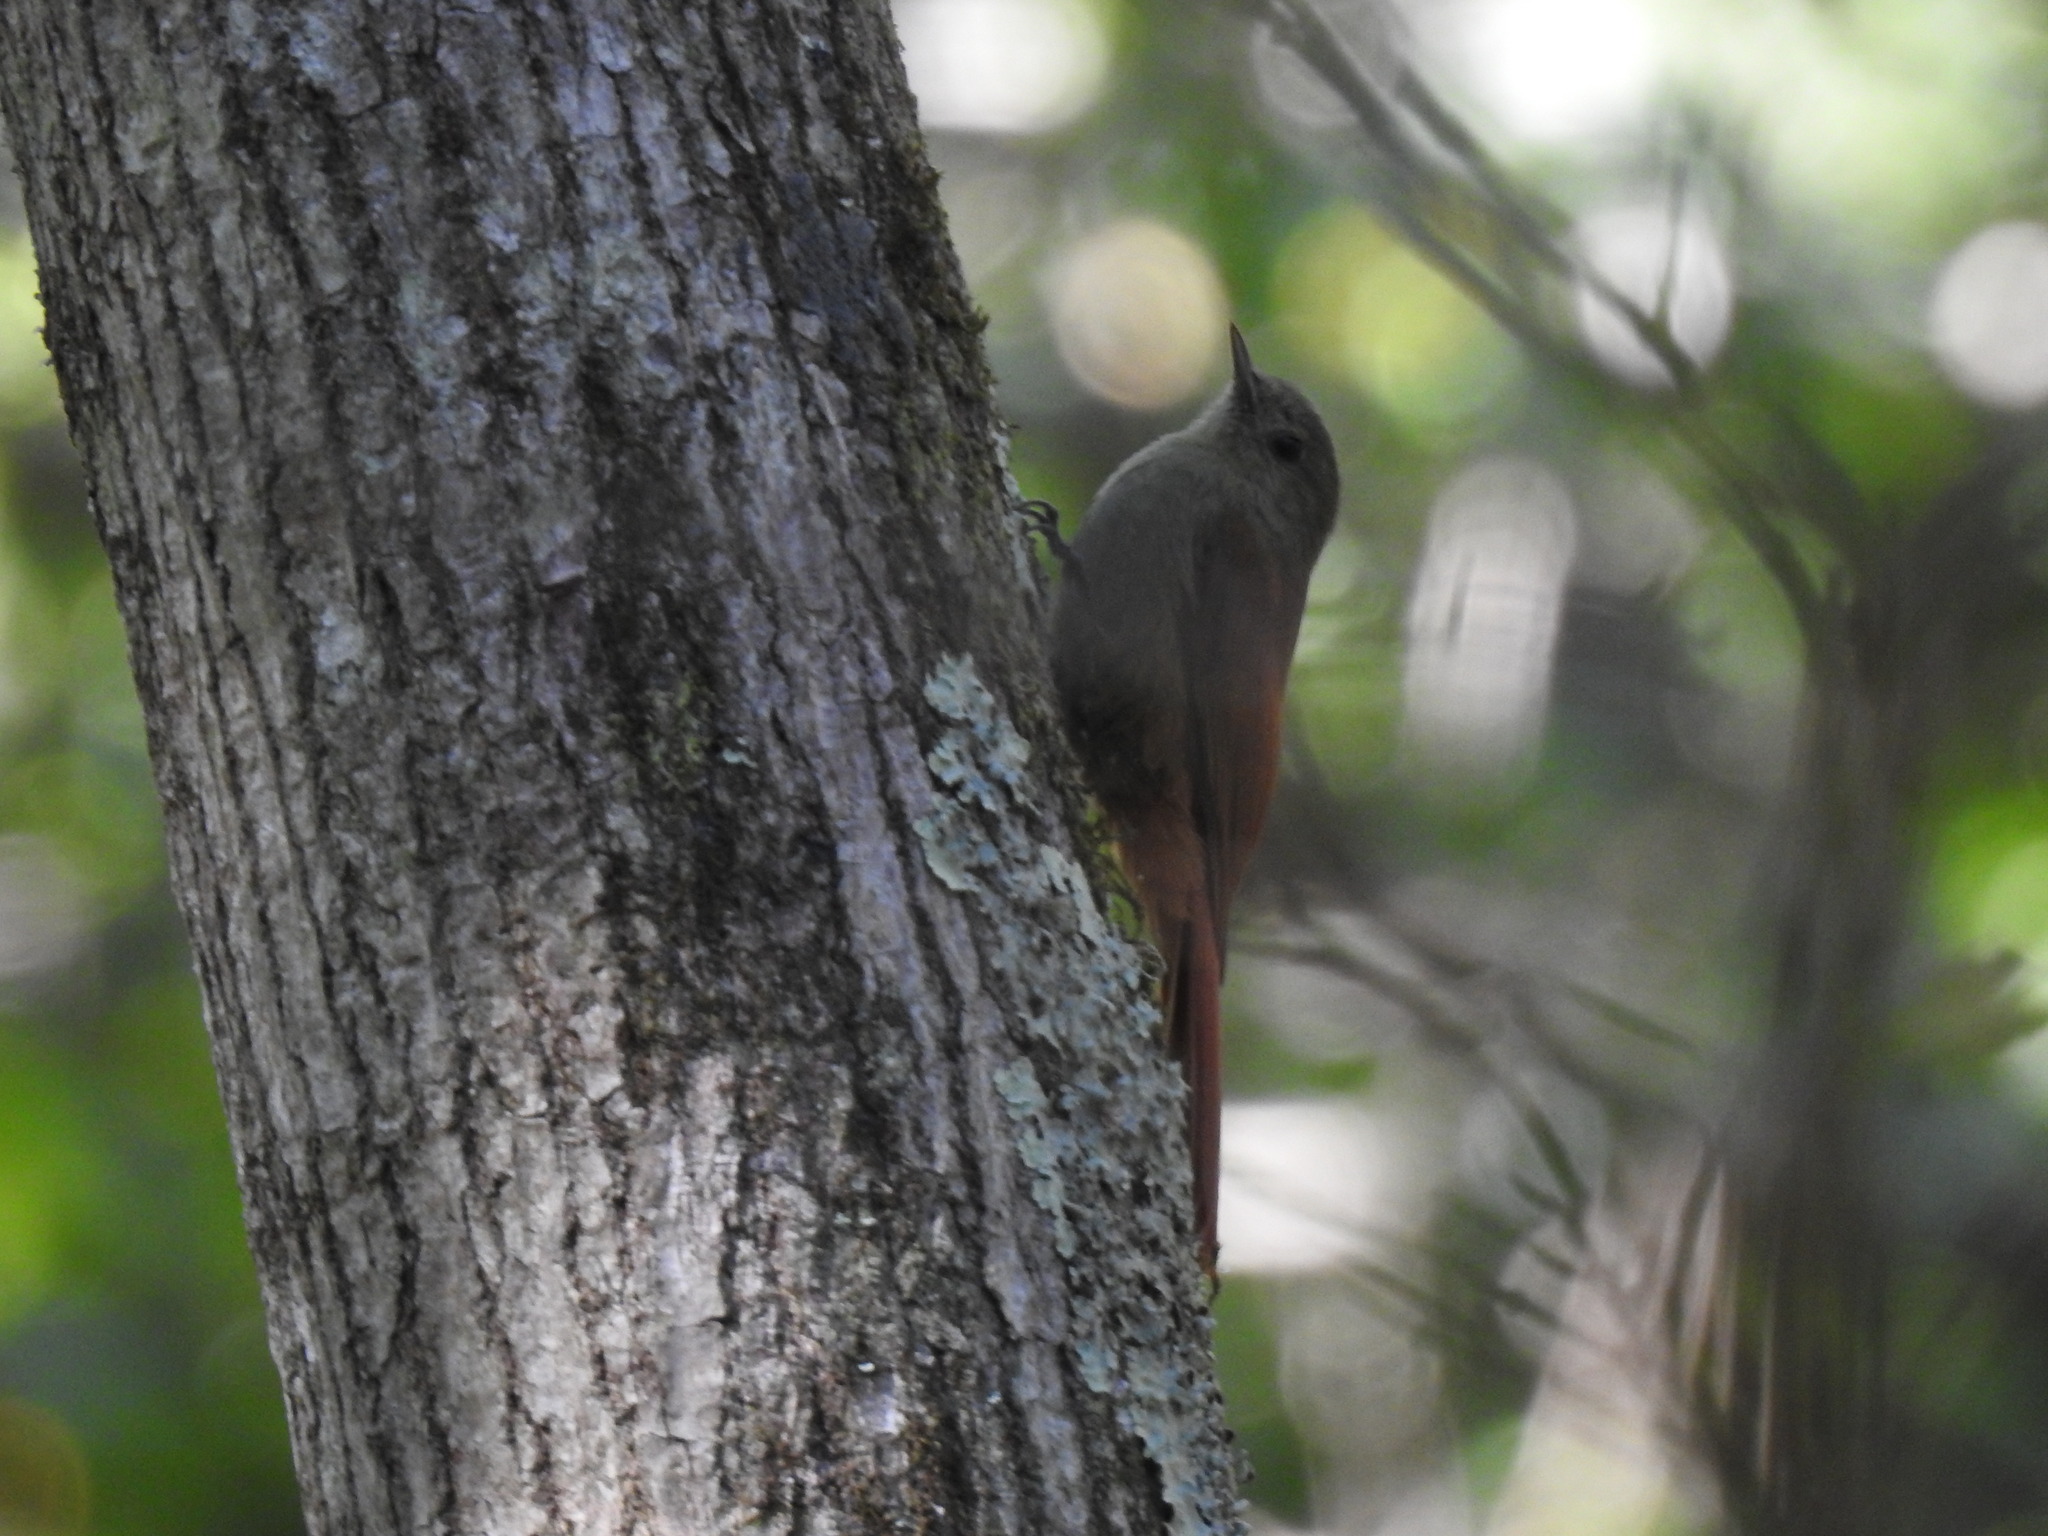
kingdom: Animalia
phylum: Chordata
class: Aves
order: Passeriformes
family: Furnariidae
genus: Sittasomus
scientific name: Sittasomus griseicapillus
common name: Olivaceous woodcreeper
